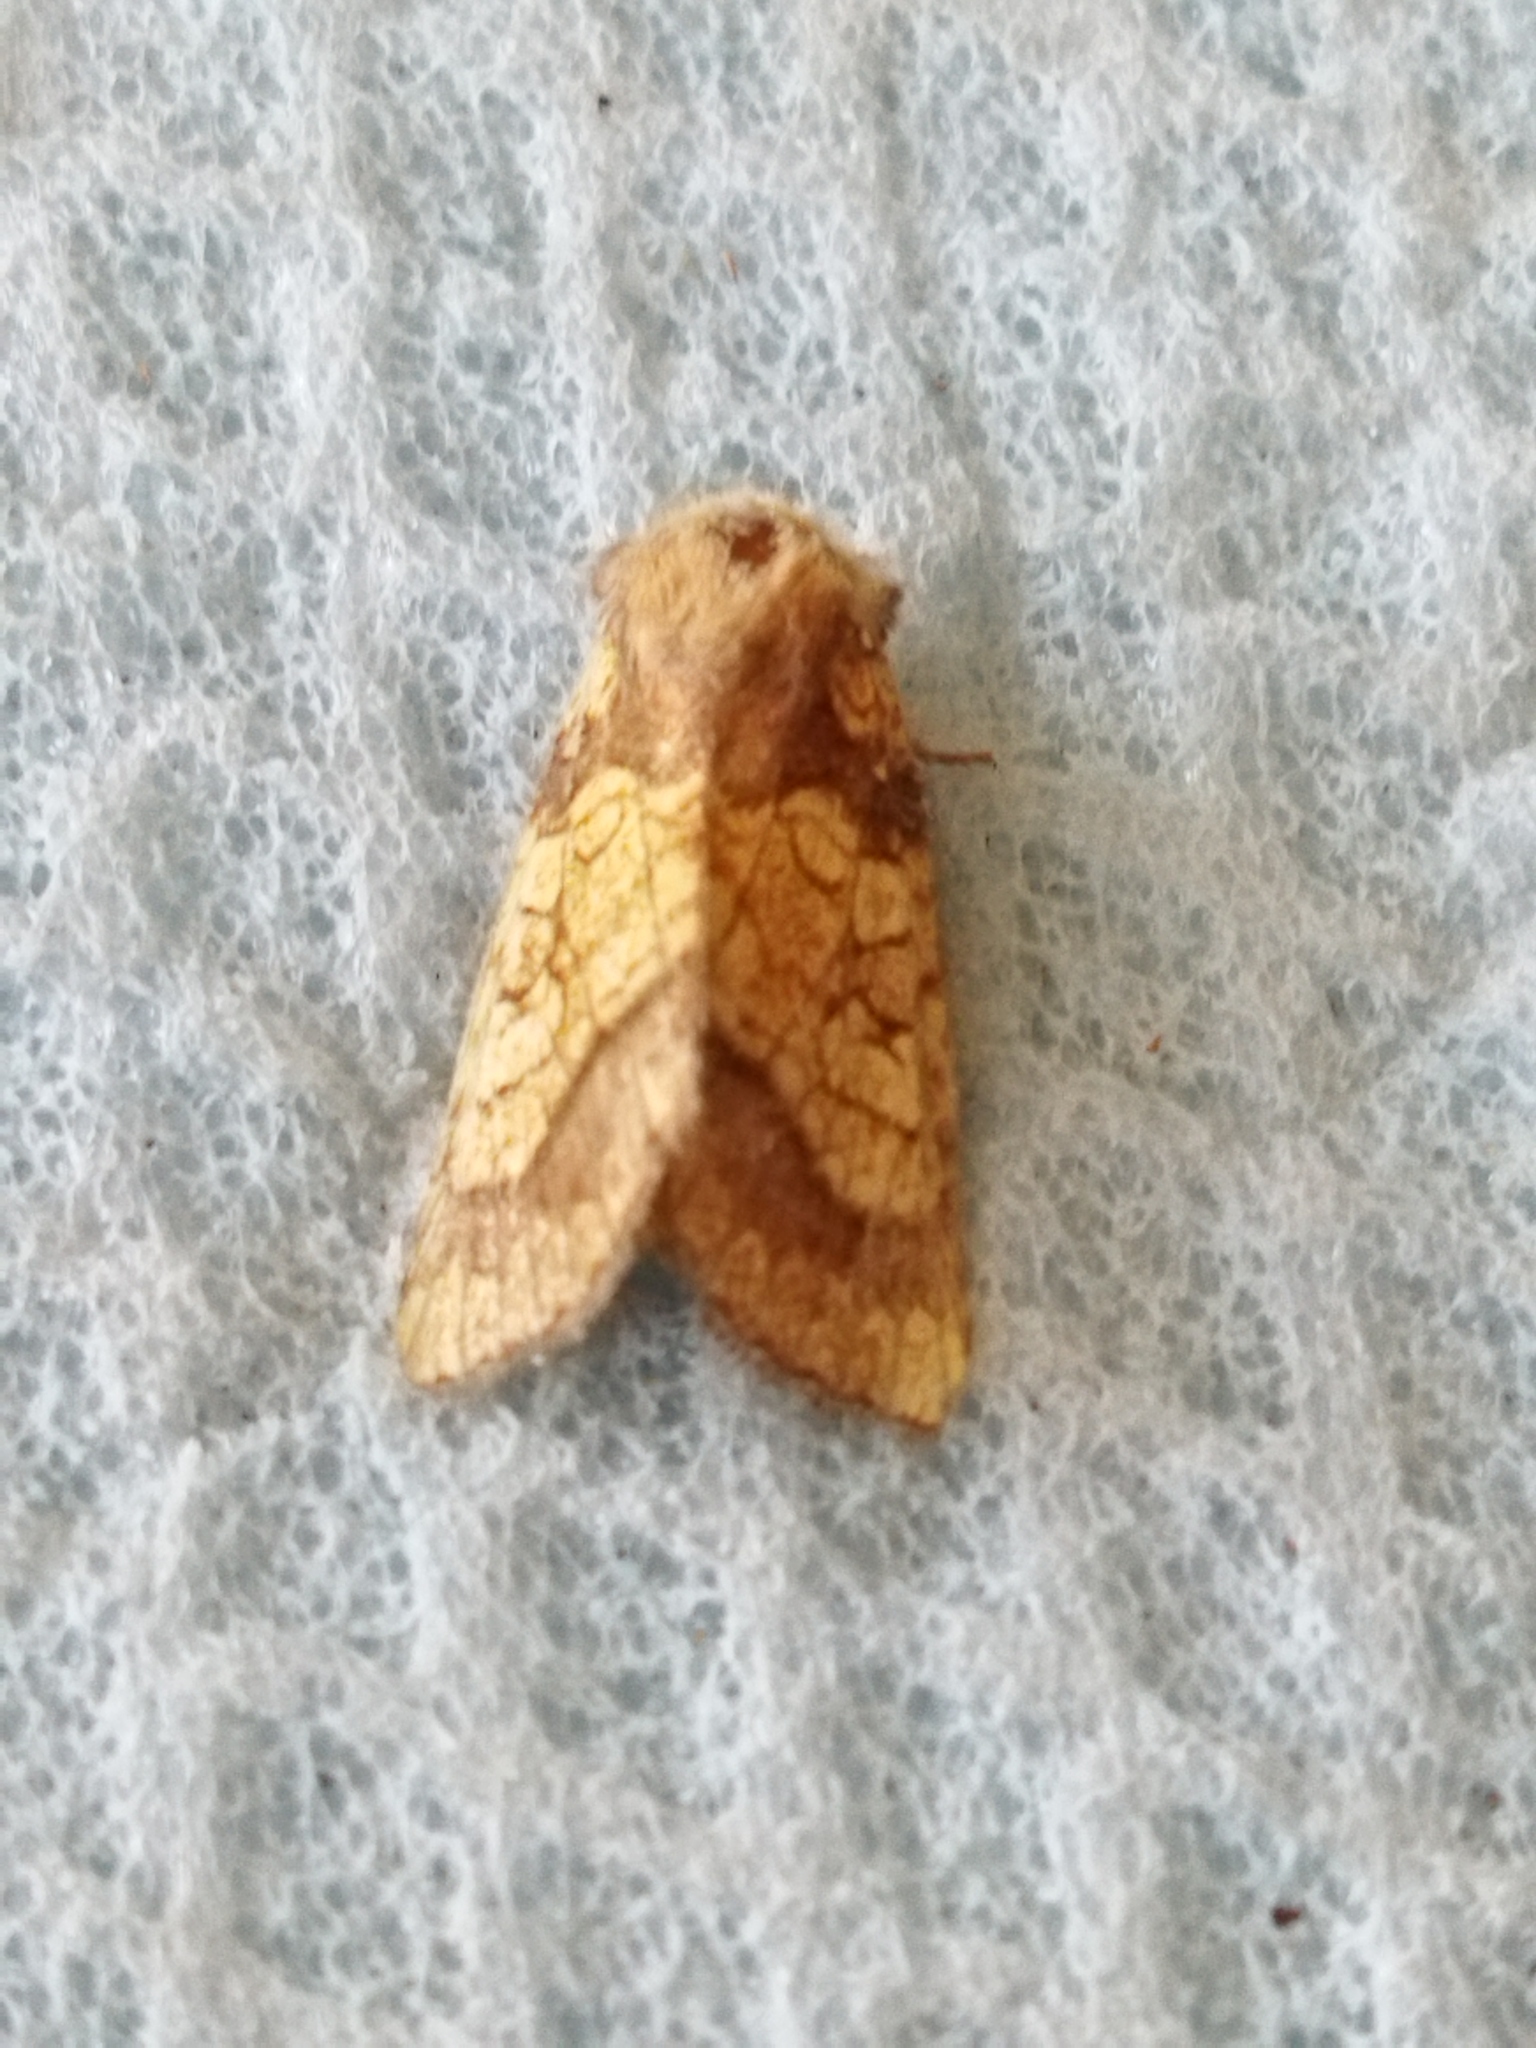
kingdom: Animalia
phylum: Arthropoda
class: Insecta
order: Lepidoptera
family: Noctuidae
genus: Gortyna
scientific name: Gortyna flavago
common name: Frosted orange
